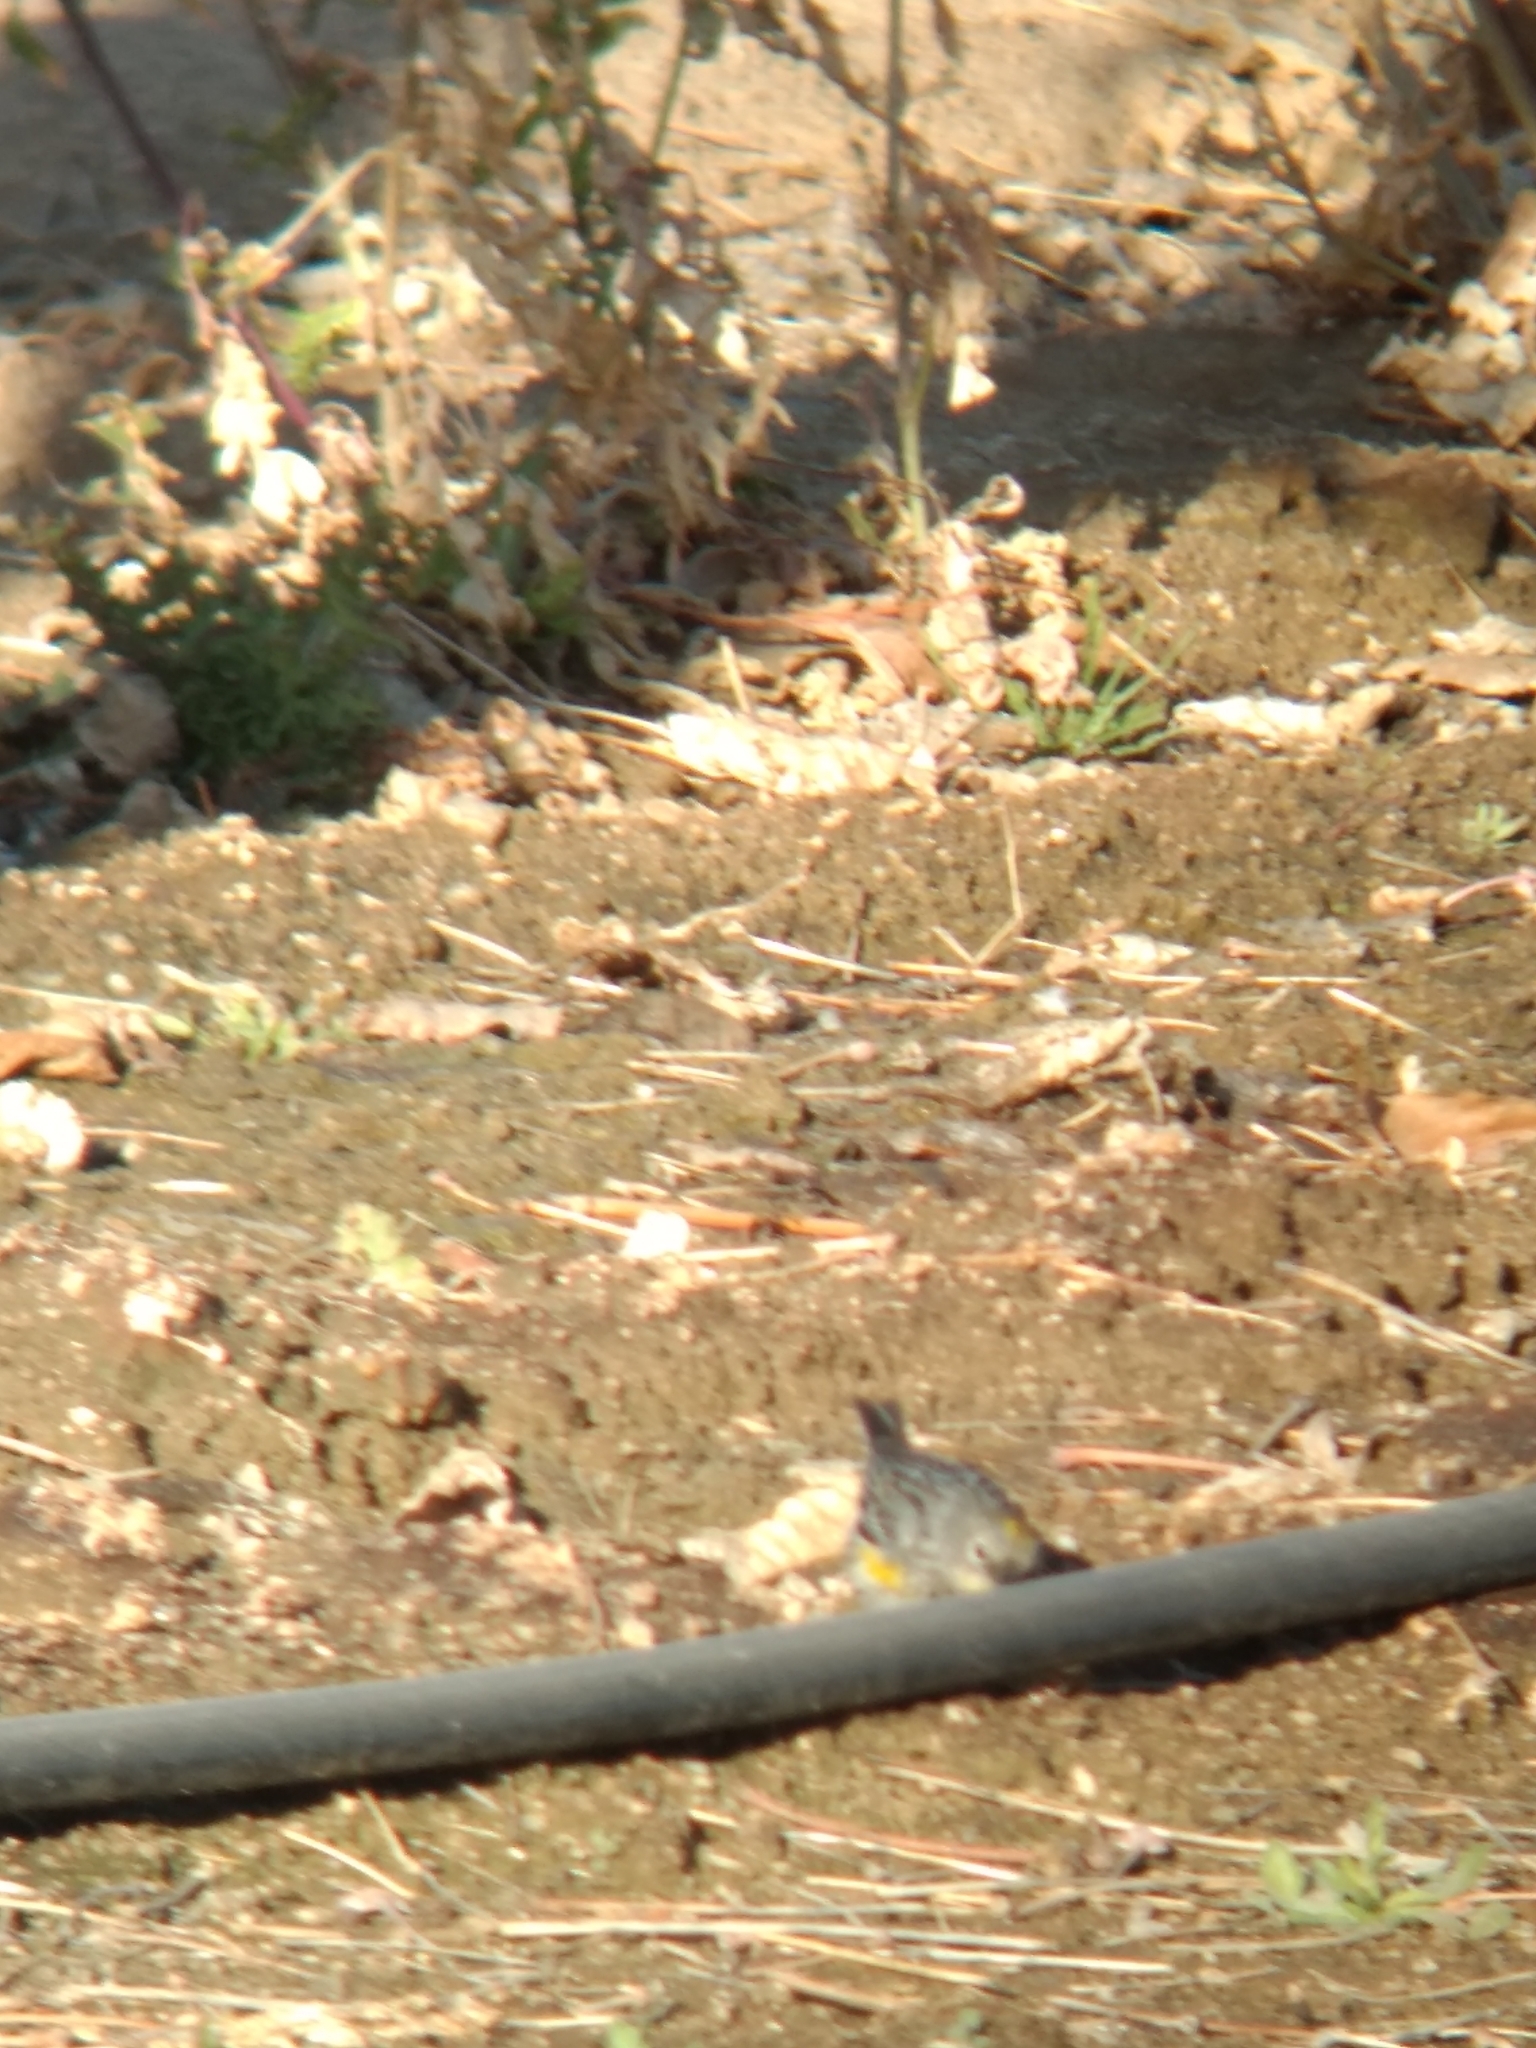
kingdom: Animalia
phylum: Chordata
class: Aves
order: Passeriformes
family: Parulidae
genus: Setophaga
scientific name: Setophaga coronata
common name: Myrtle warbler
